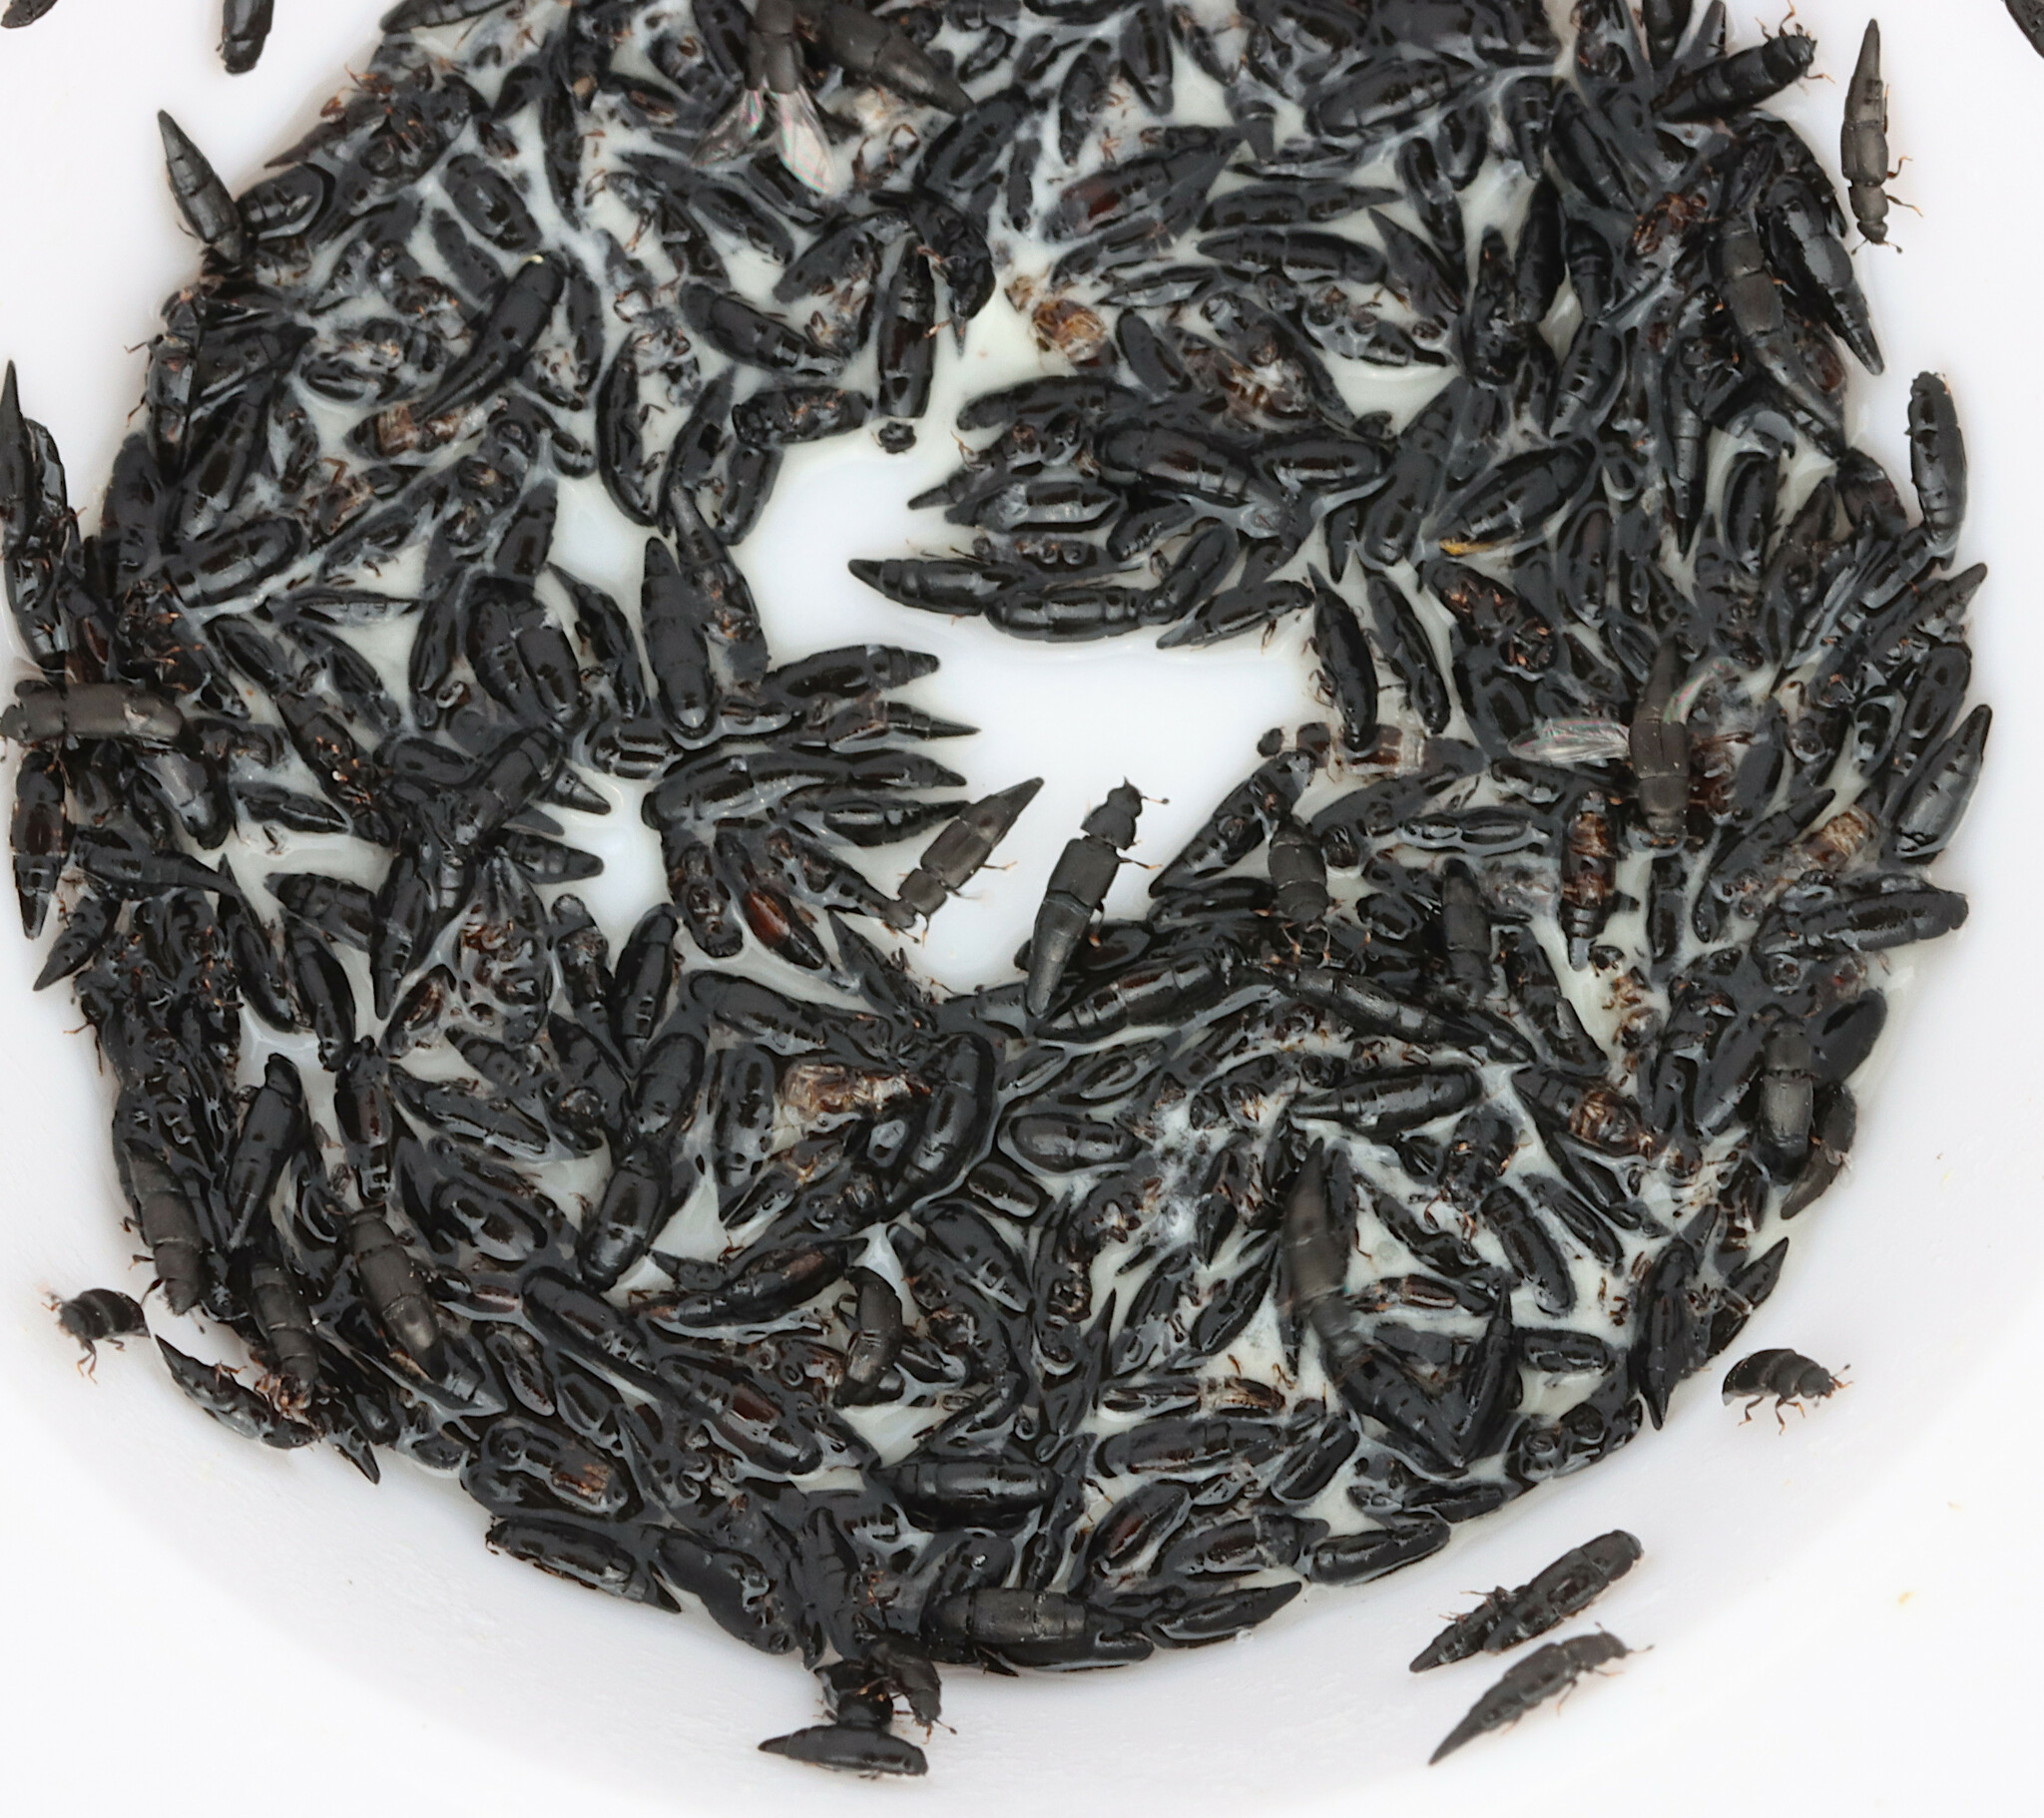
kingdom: Animalia
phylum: Arthropoda
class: Insecta
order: Coleoptera
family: Nitidulidae
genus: Conotelus
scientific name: Conotelus obscurus
